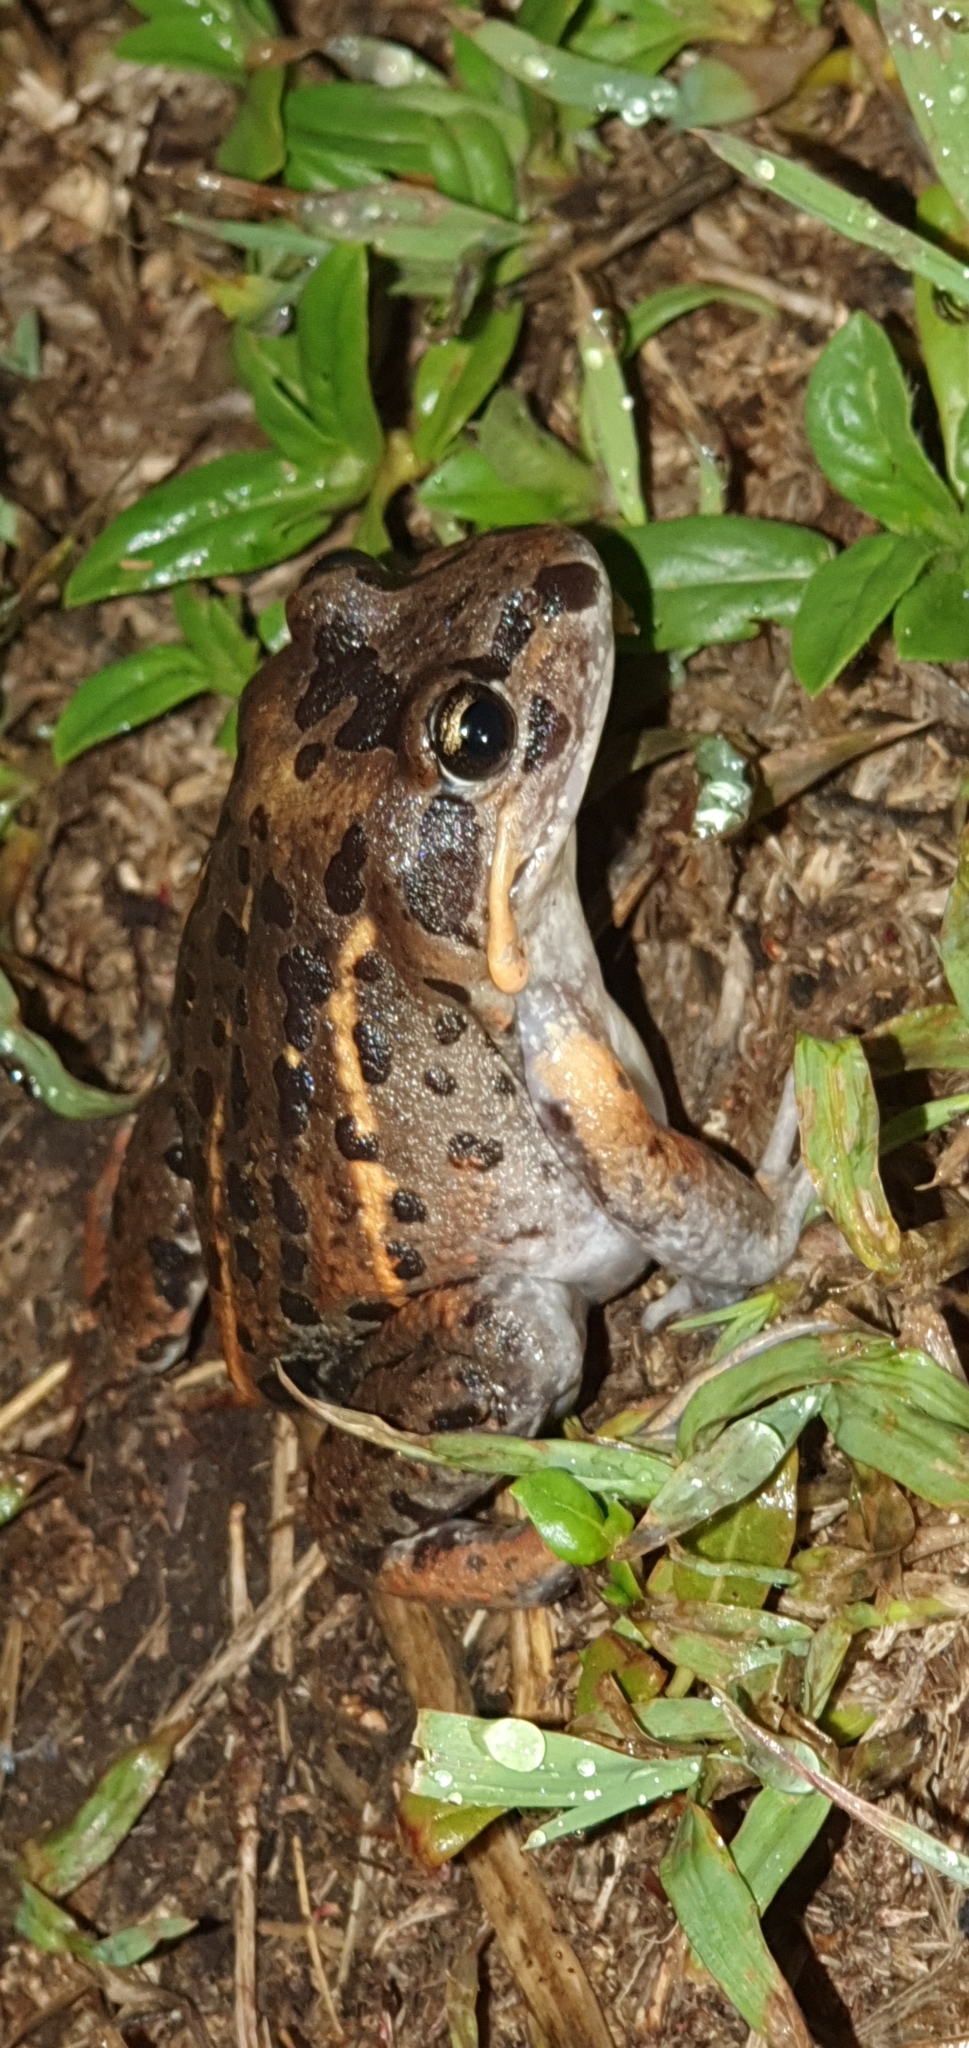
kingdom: Animalia
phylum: Chordata
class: Amphibia
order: Anura
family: Limnodynastidae
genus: Limnodynastes
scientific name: Limnodynastes salmini
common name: Salmon-striped frog
